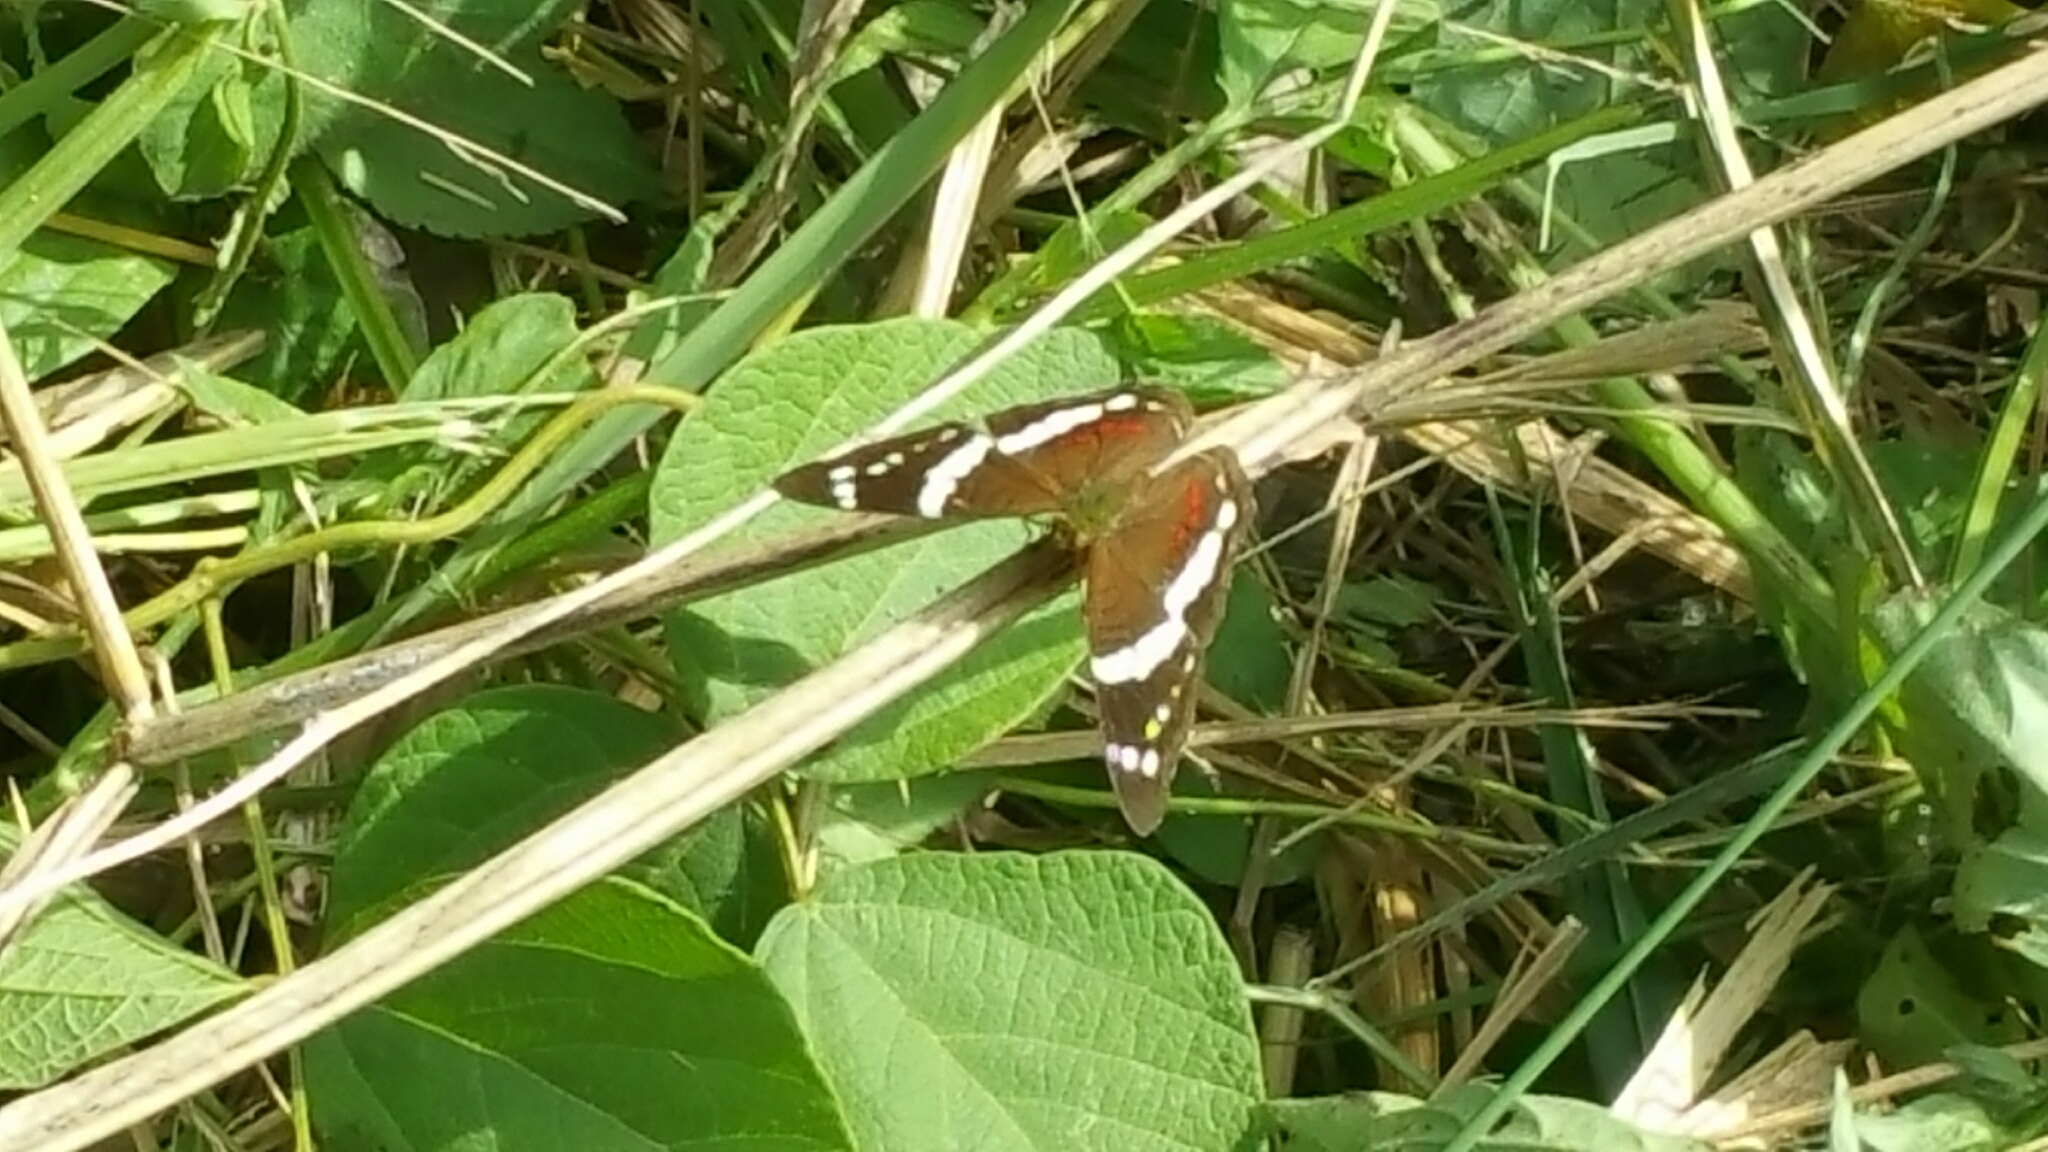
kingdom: Animalia
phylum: Arthropoda
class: Insecta
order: Lepidoptera
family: Nymphalidae
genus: Anartia
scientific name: Anartia fatima
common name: Banded peacock
